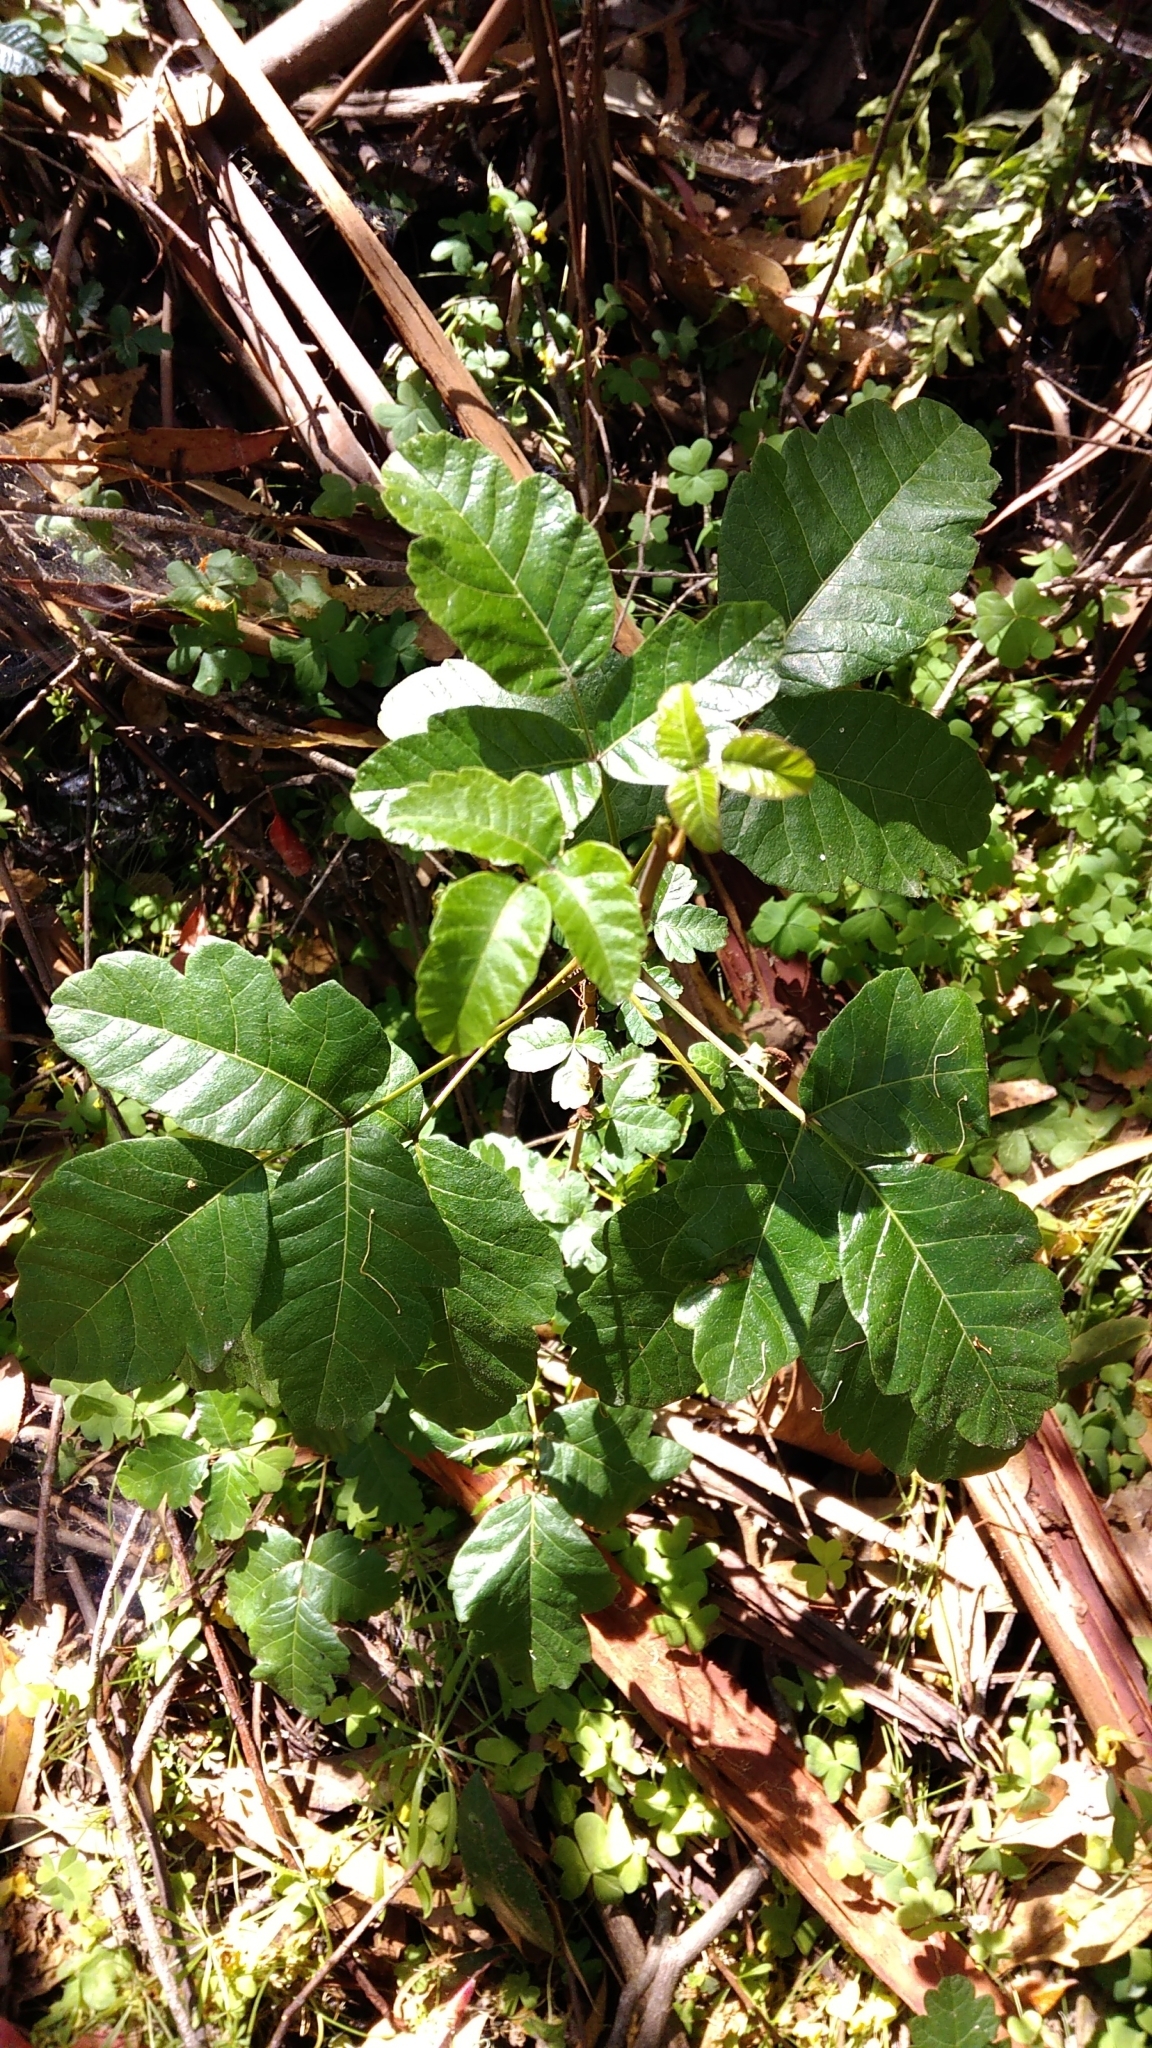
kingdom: Plantae
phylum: Tracheophyta
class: Magnoliopsida
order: Sapindales
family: Anacardiaceae
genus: Toxicodendron
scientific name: Toxicodendron diversilobum
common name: Pacific poison-oak
